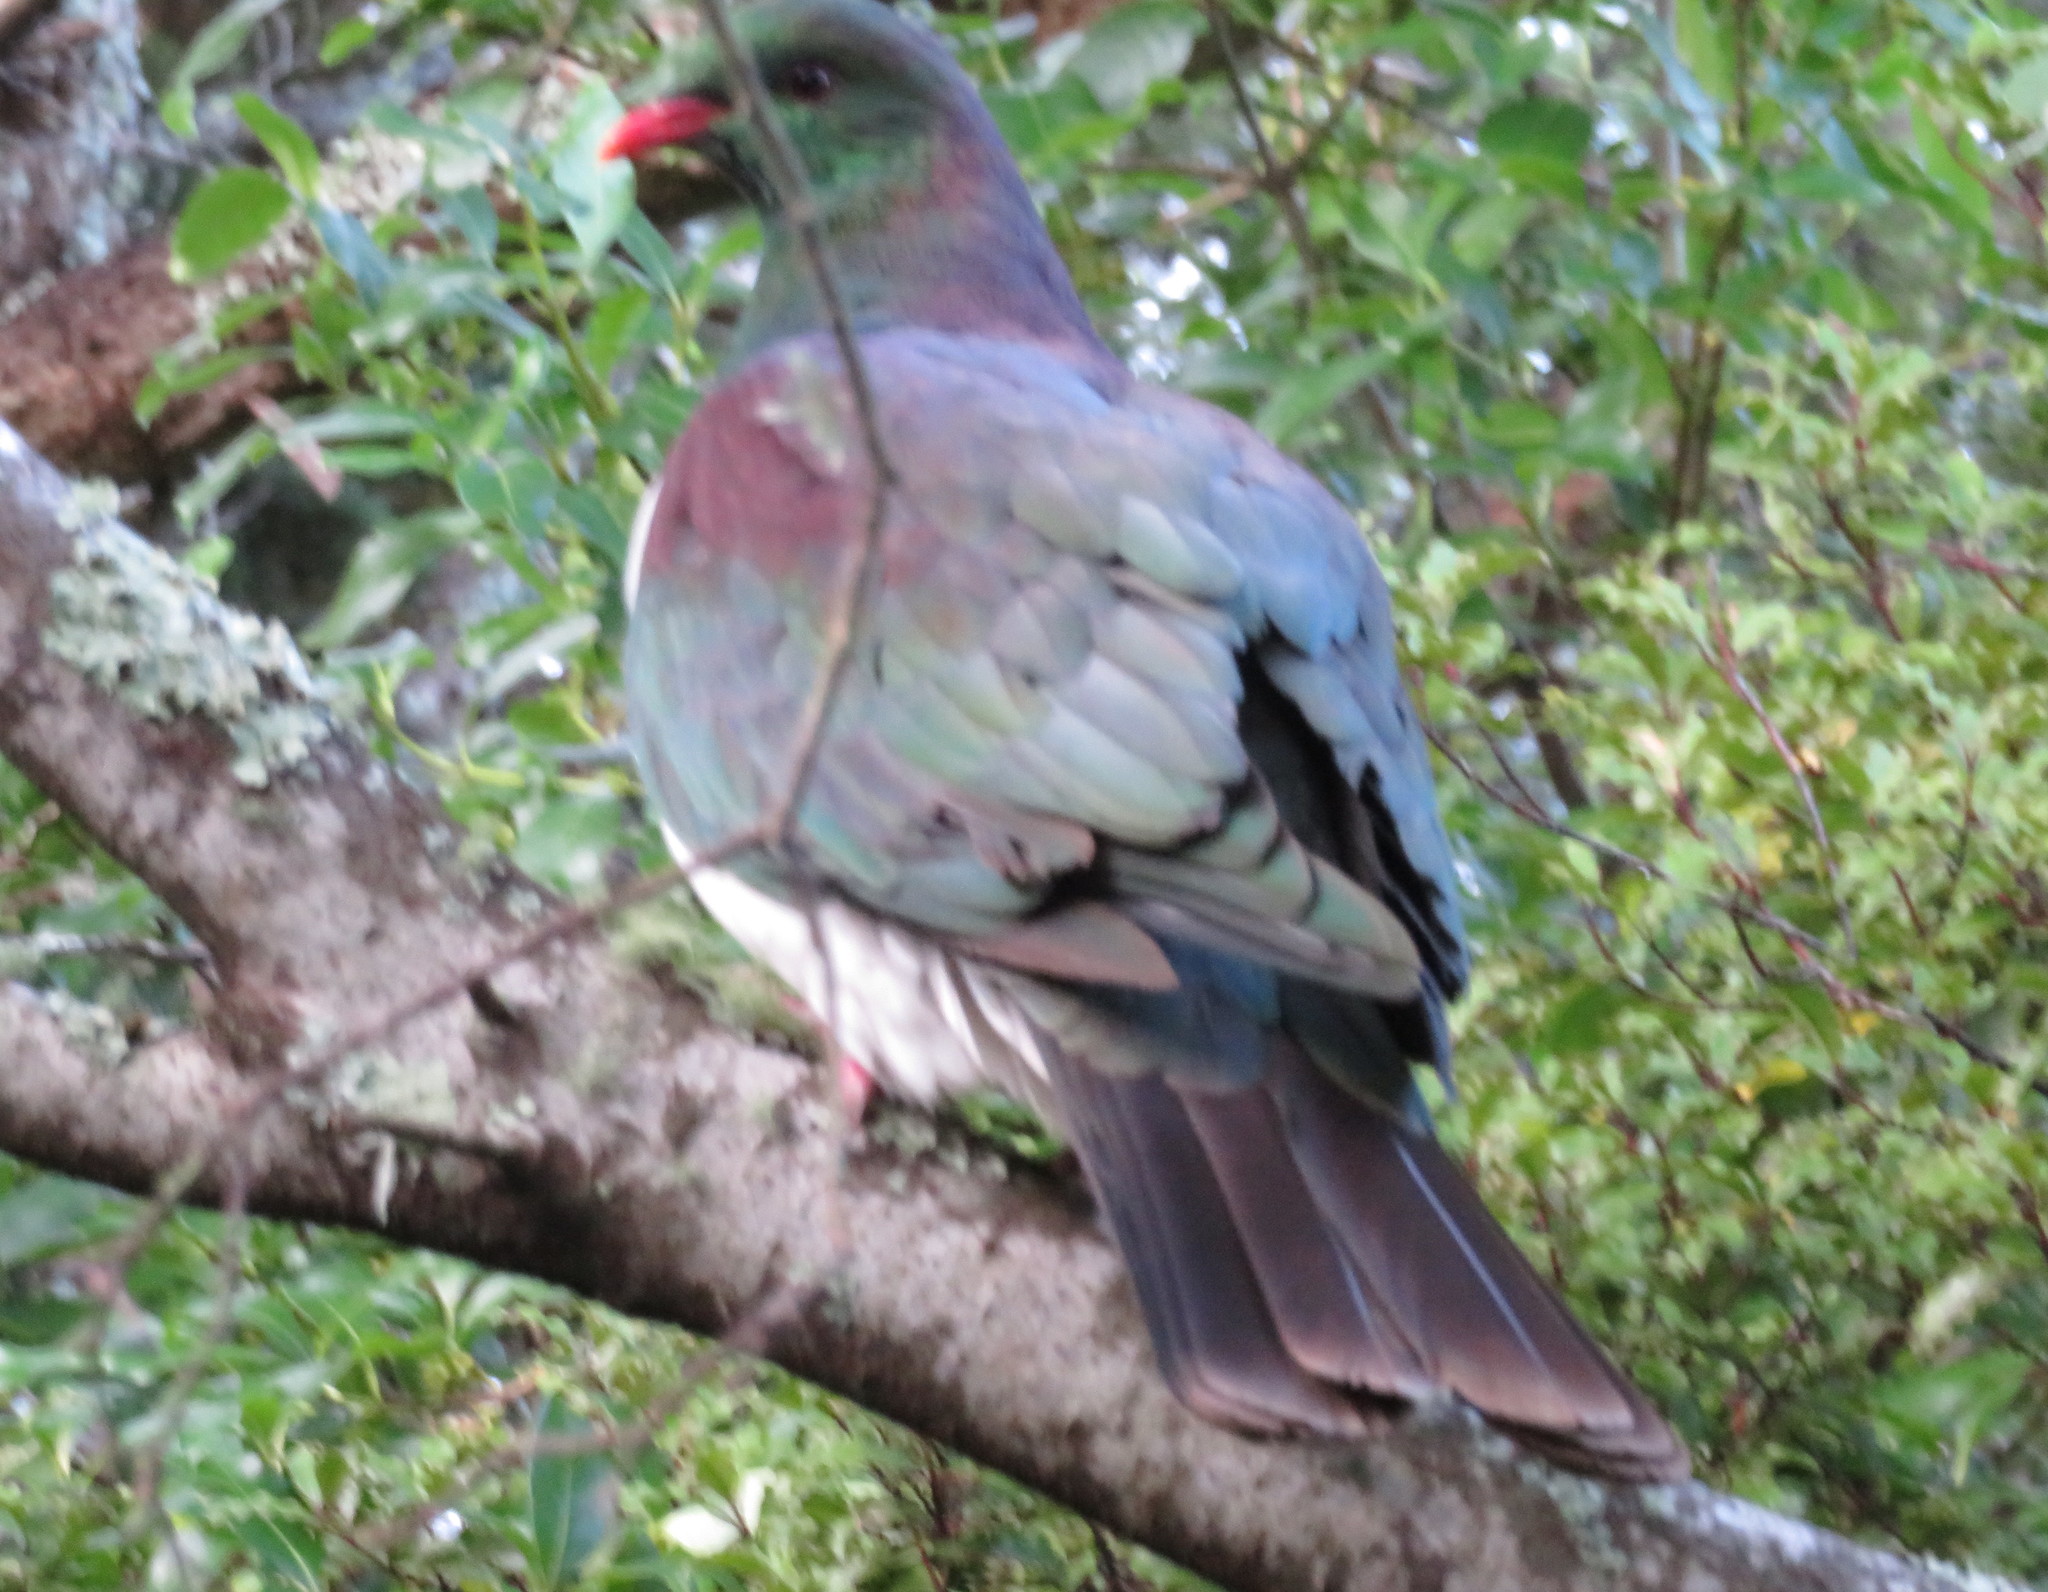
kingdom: Animalia
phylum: Chordata
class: Aves
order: Columbiformes
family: Columbidae
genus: Hemiphaga
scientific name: Hemiphaga novaeseelandiae
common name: New zealand pigeon
